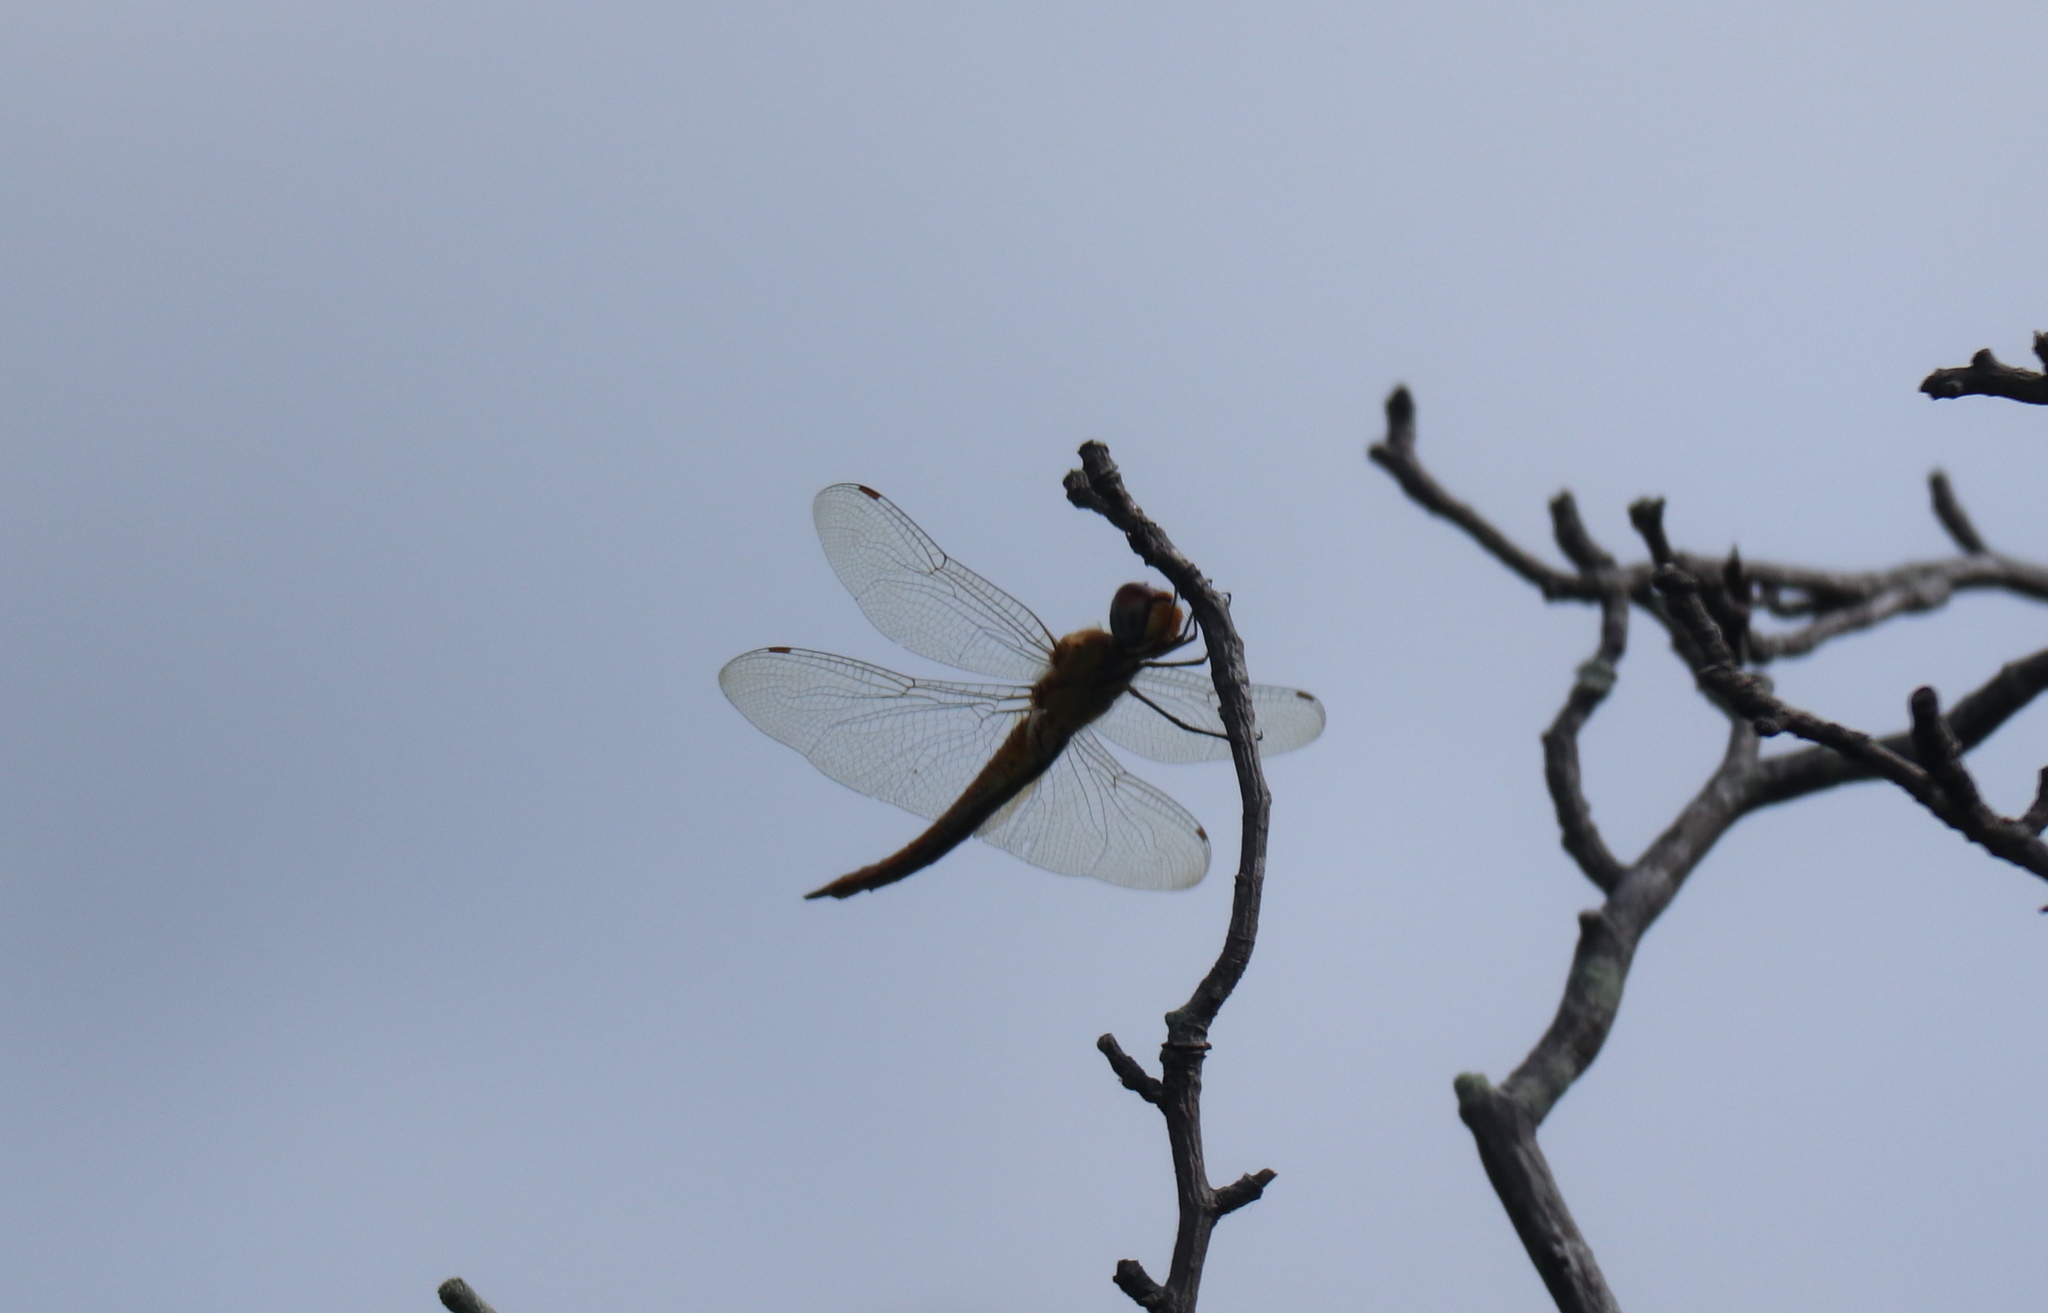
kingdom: Animalia
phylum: Arthropoda
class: Insecta
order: Odonata
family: Libellulidae
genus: Pantala
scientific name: Pantala flavescens
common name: Wandering glider
